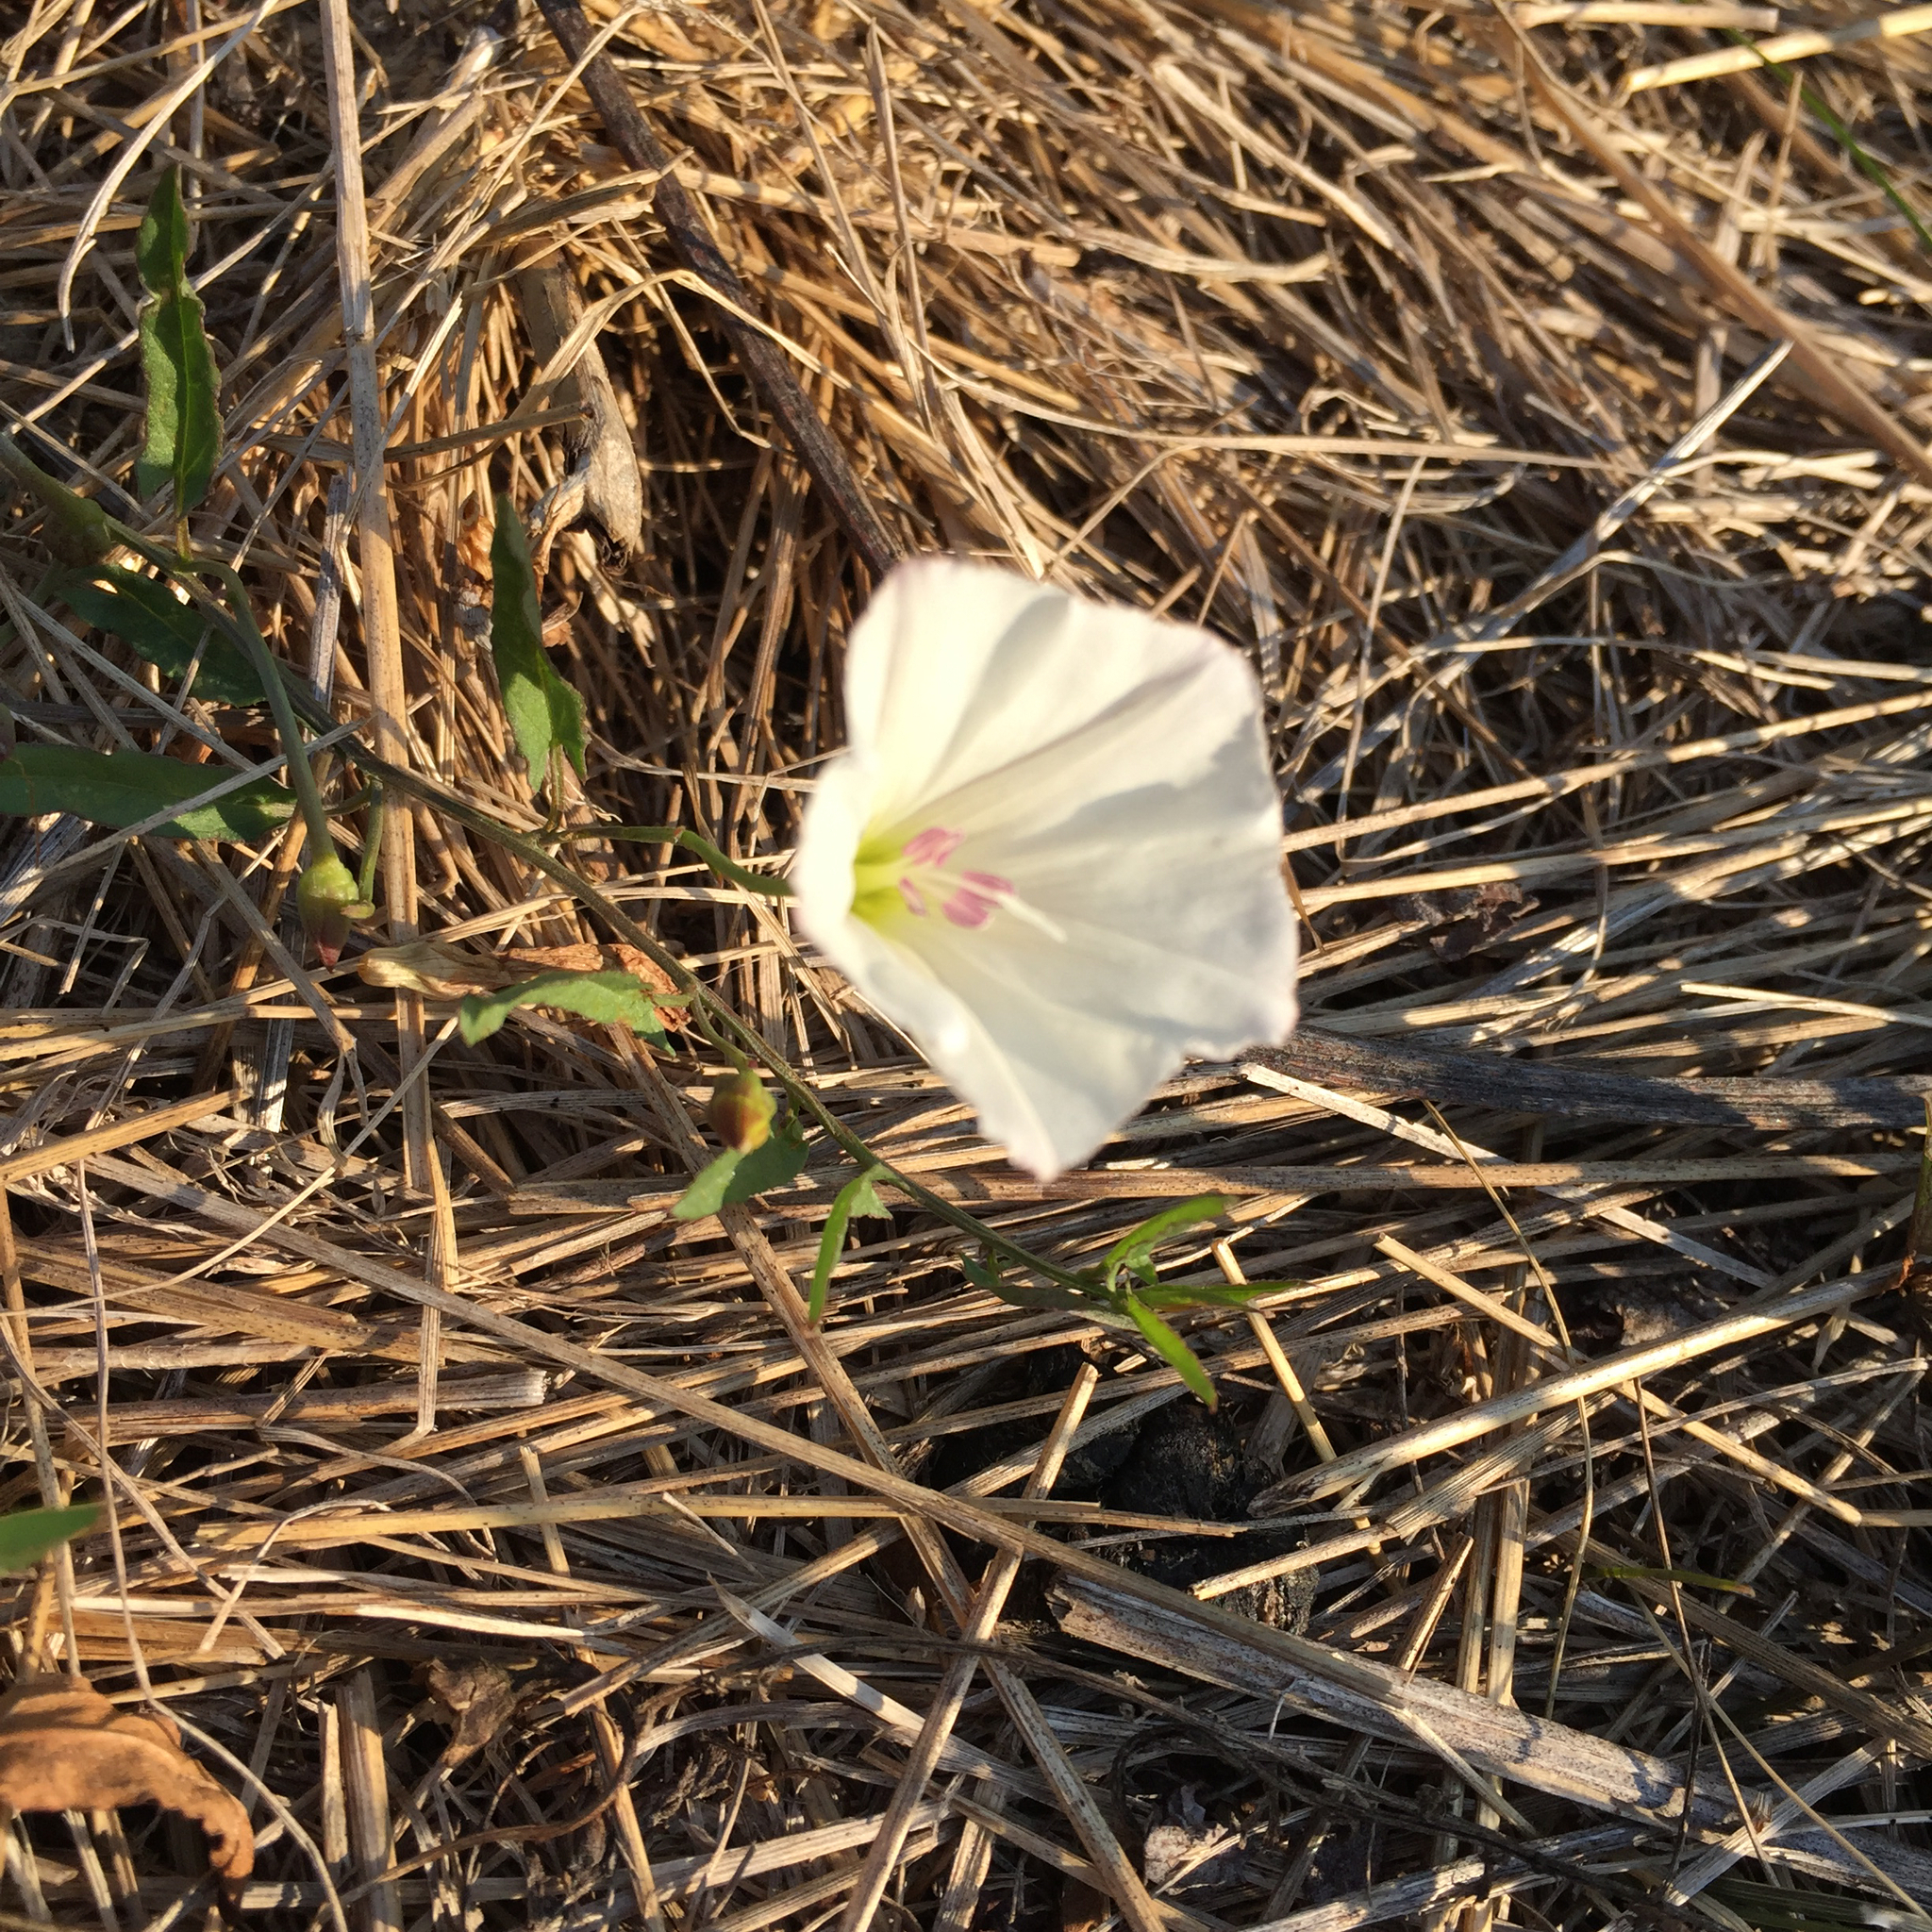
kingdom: Plantae
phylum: Tracheophyta
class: Magnoliopsida
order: Solanales
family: Convolvulaceae
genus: Convolvulus
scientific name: Convolvulus arvensis
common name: Field bindweed
